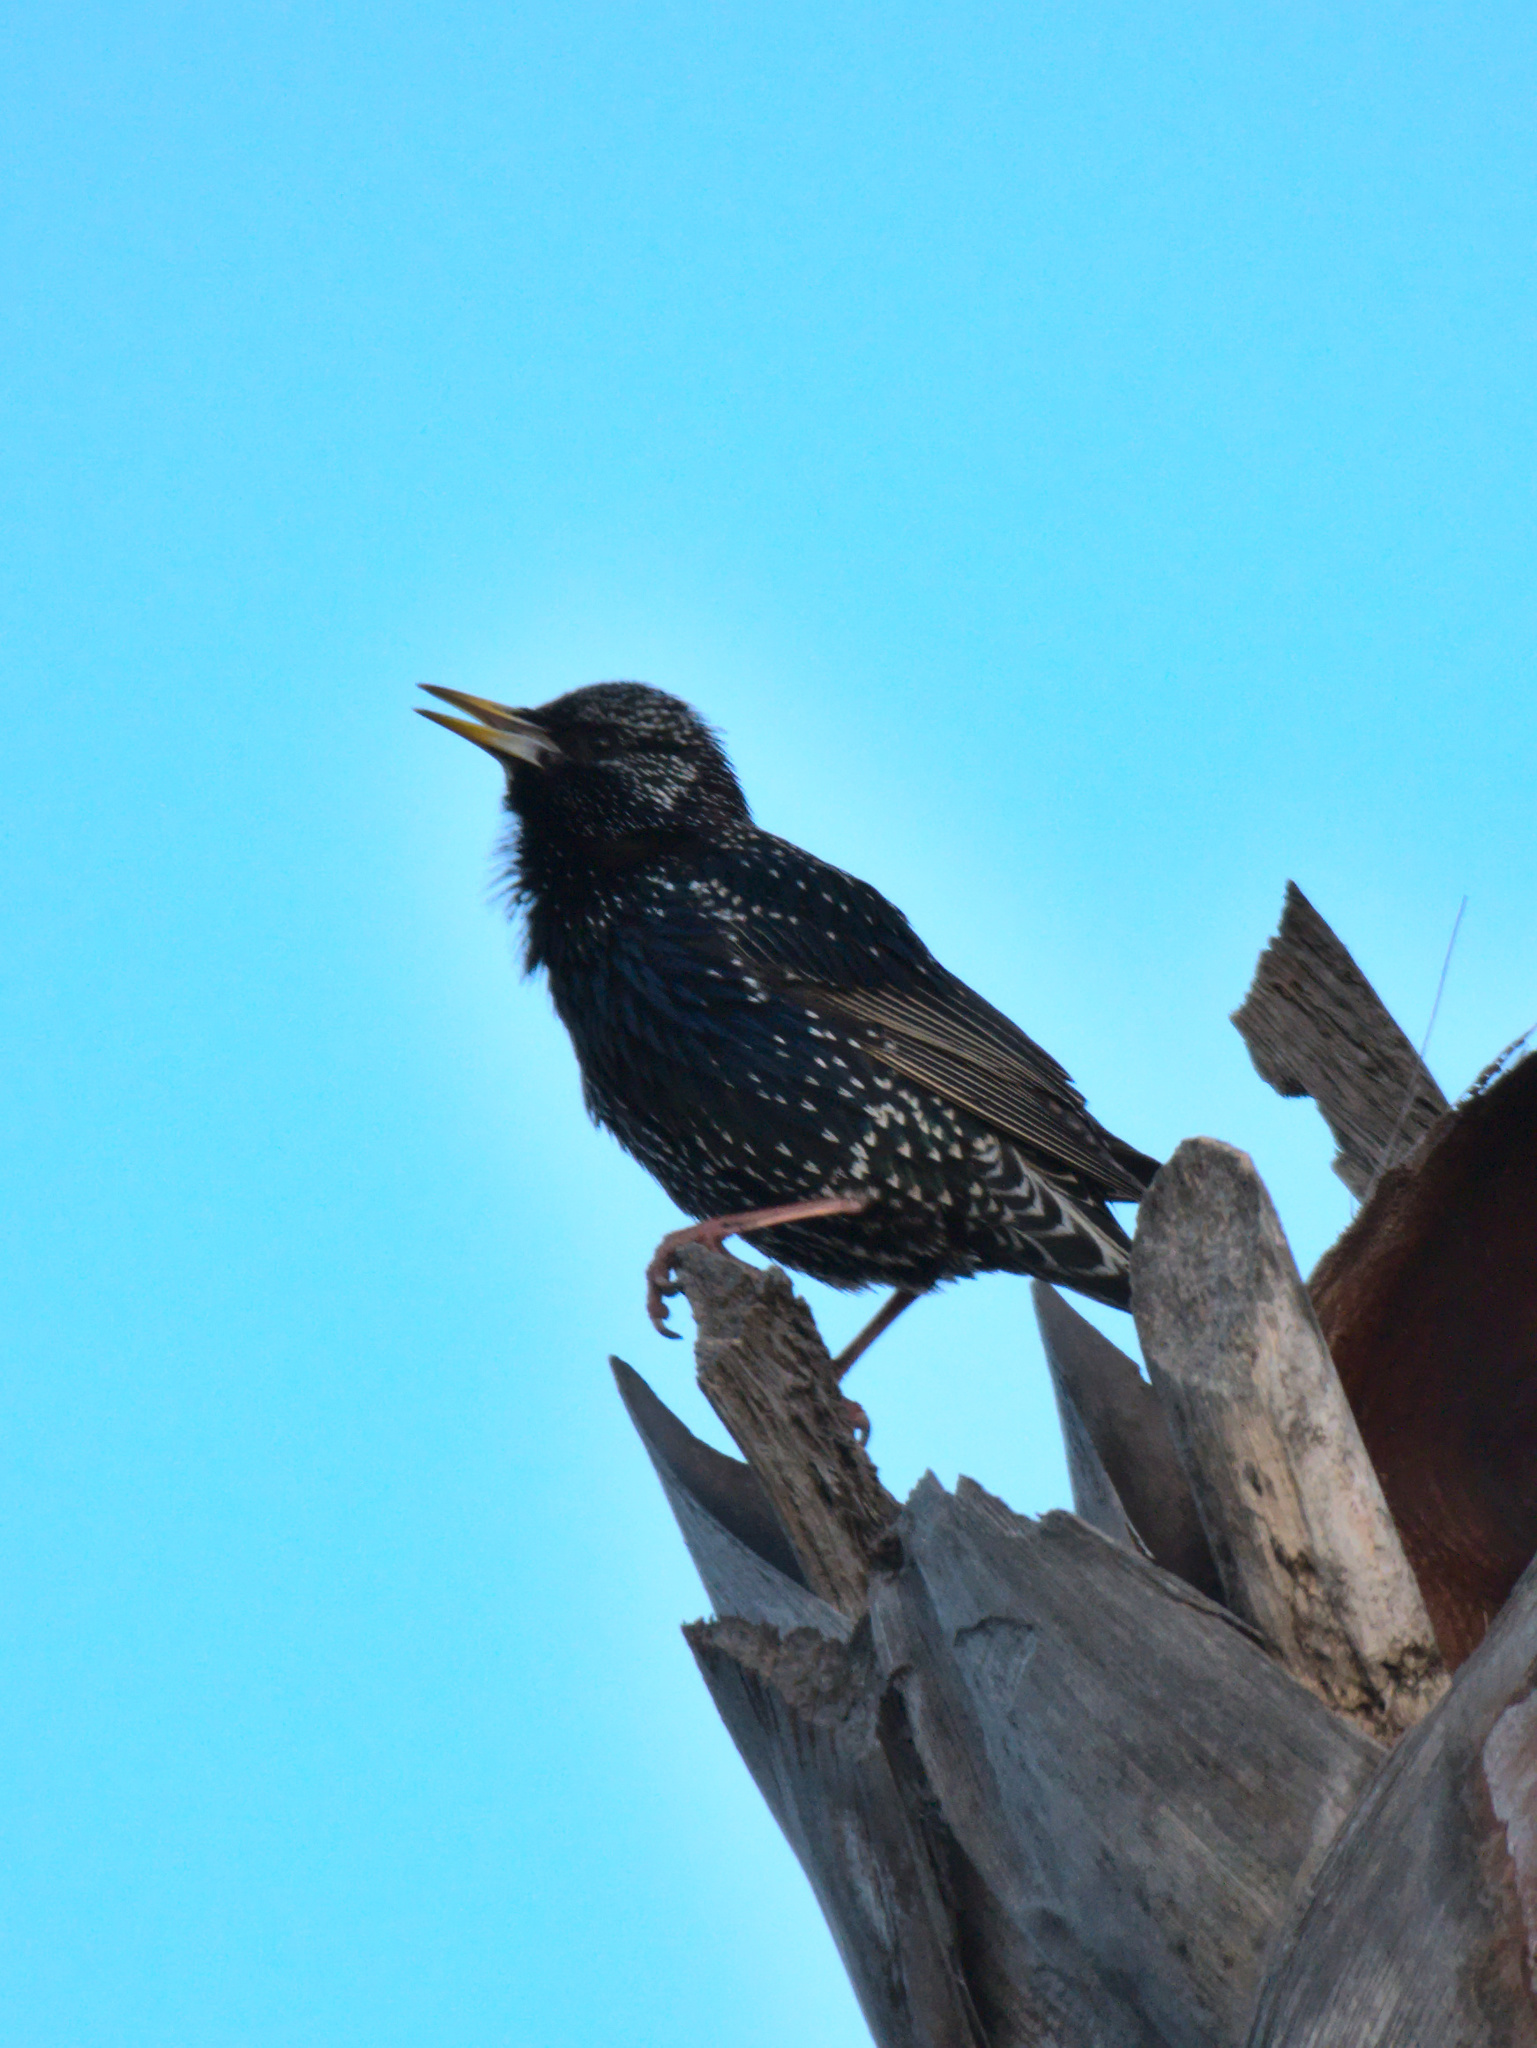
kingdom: Animalia
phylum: Chordata
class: Aves
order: Passeriformes
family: Sturnidae
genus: Sturnus
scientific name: Sturnus vulgaris
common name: Common starling
